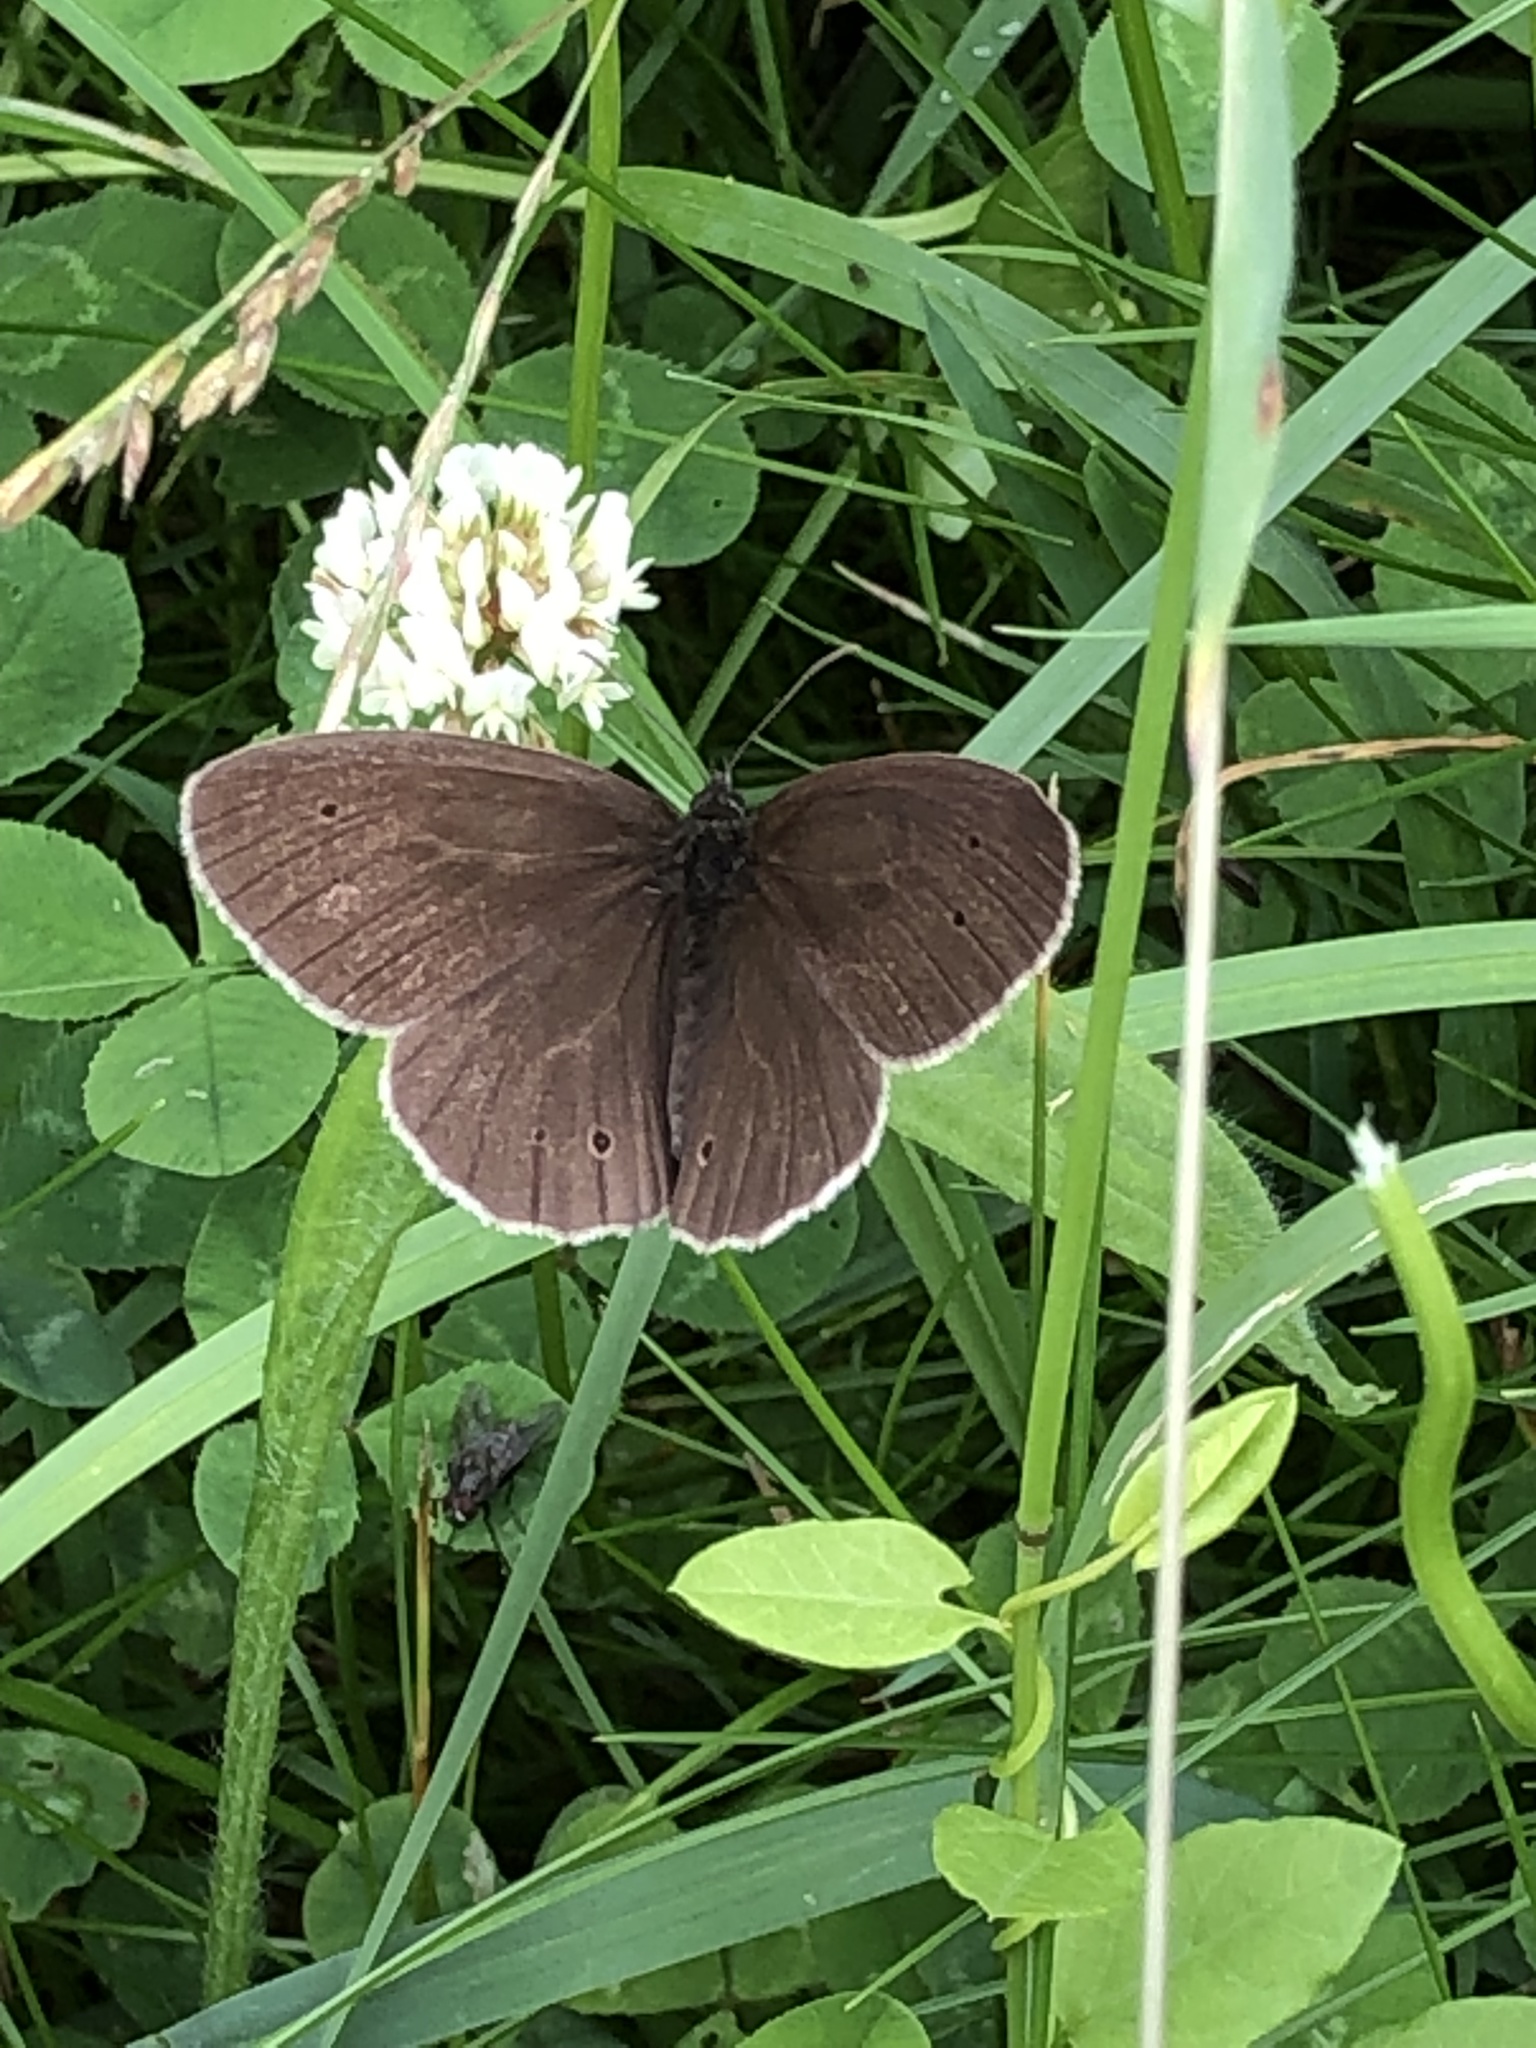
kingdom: Animalia
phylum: Arthropoda
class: Insecta
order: Lepidoptera
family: Nymphalidae
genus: Aphantopus
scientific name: Aphantopus hyperantus
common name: Ringlet
